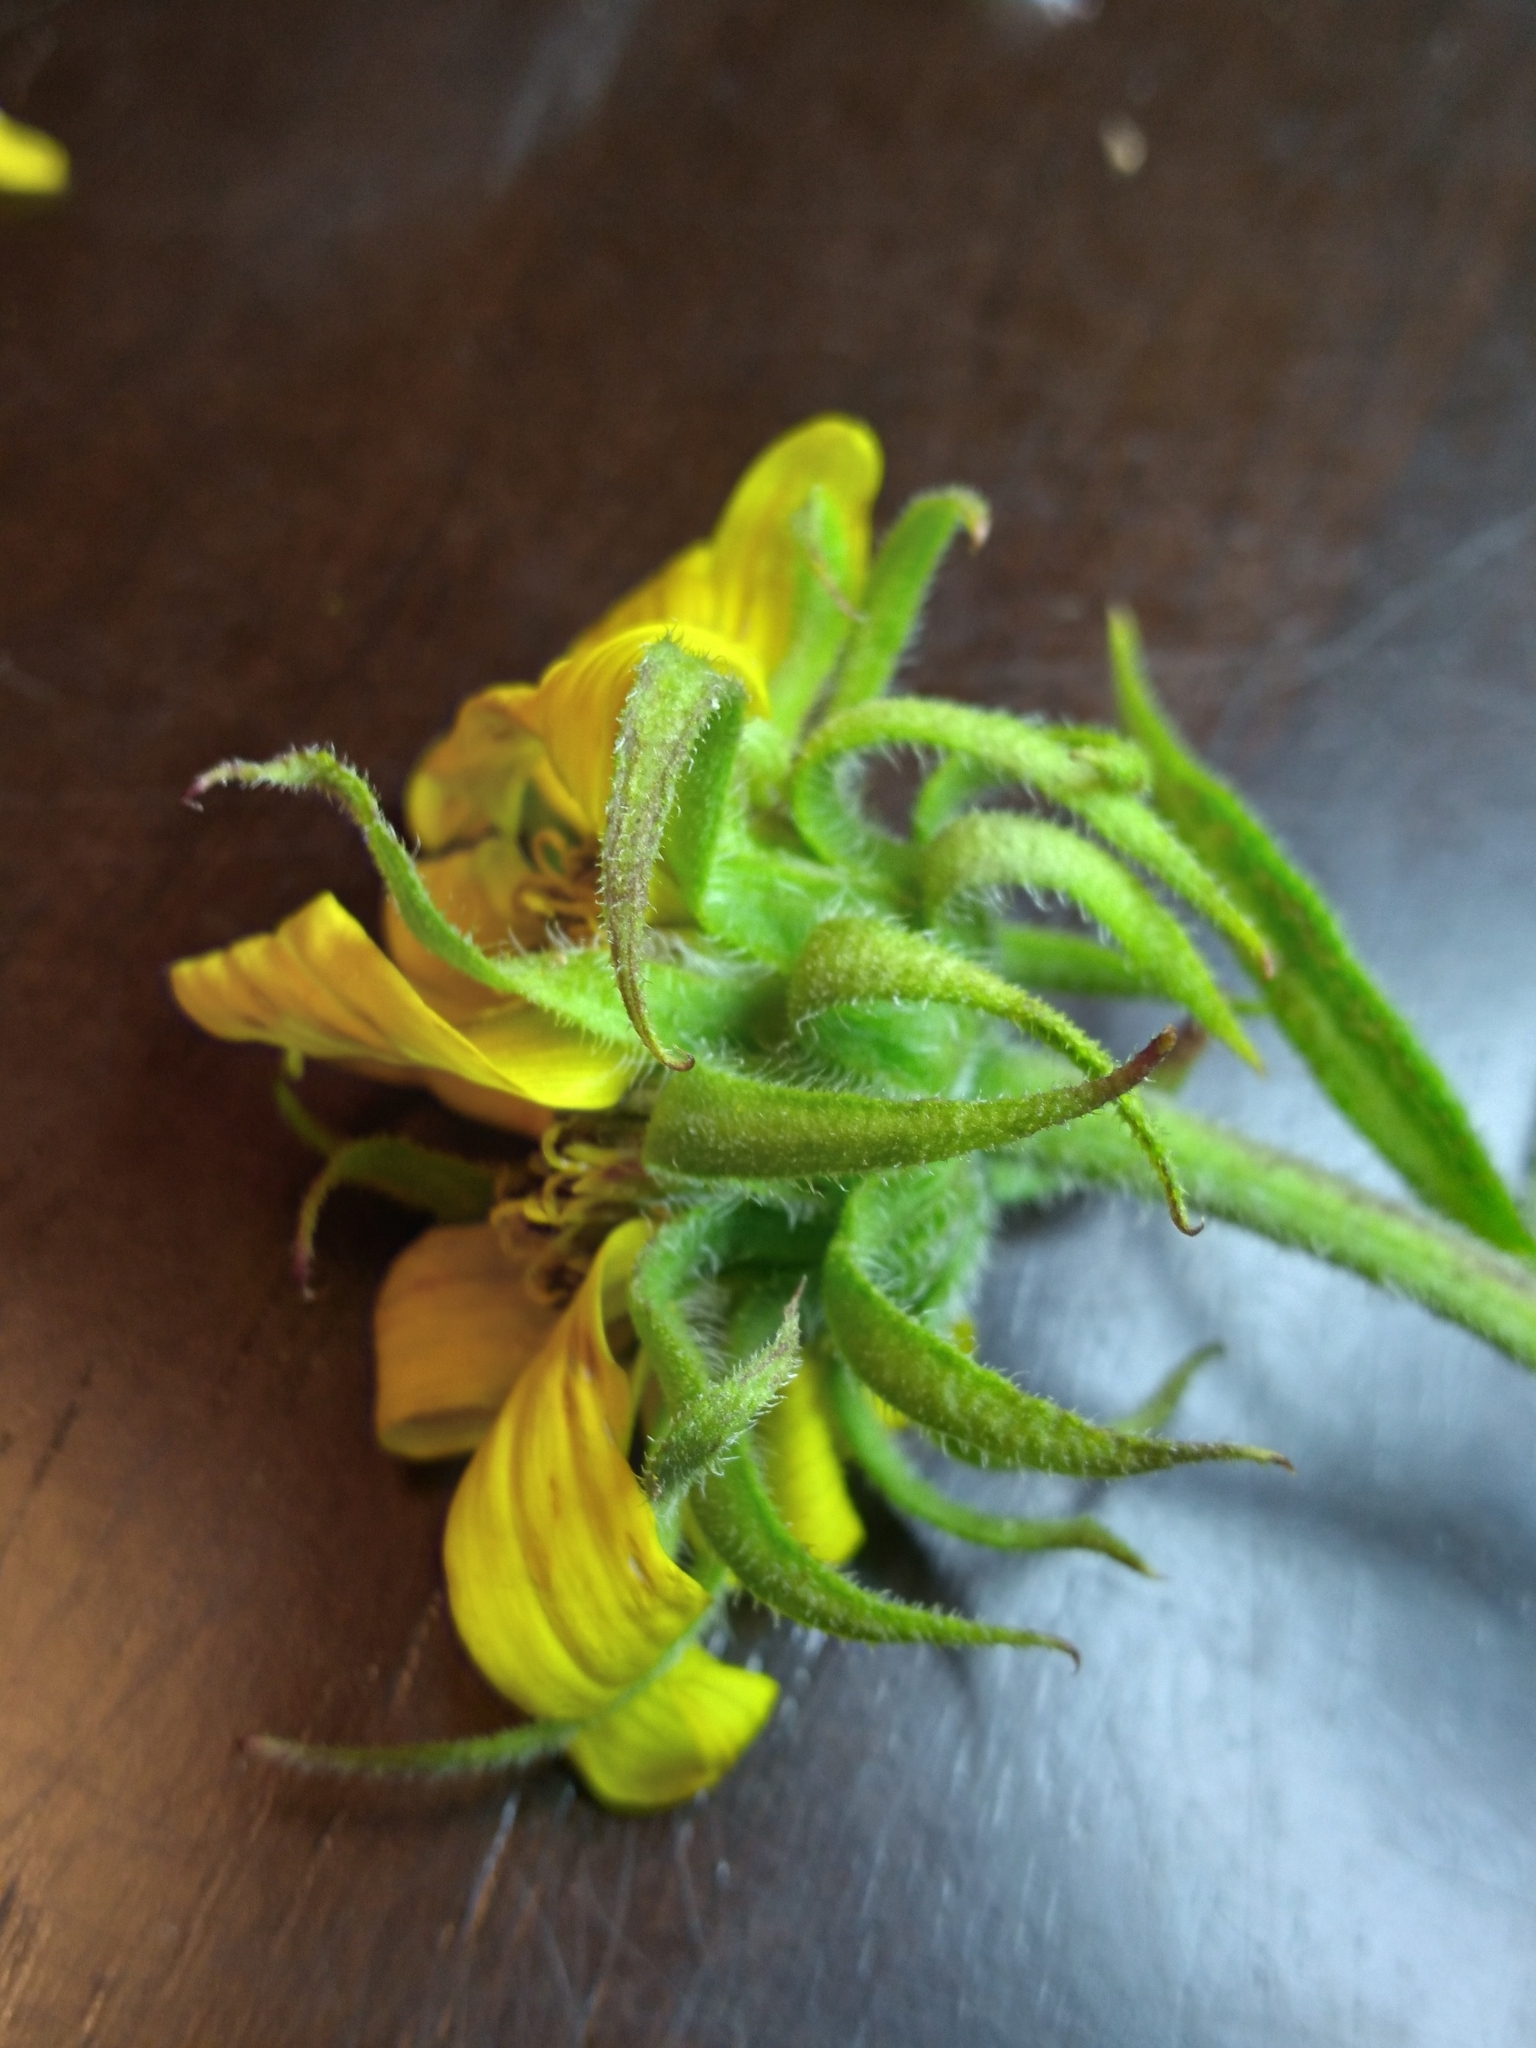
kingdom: Plantae
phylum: Tracheophyta
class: Magnoliopsida
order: Asterales
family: Asteraceae
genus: Helianthus
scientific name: Helianthus resinosus
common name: Resin-dot sunflower
